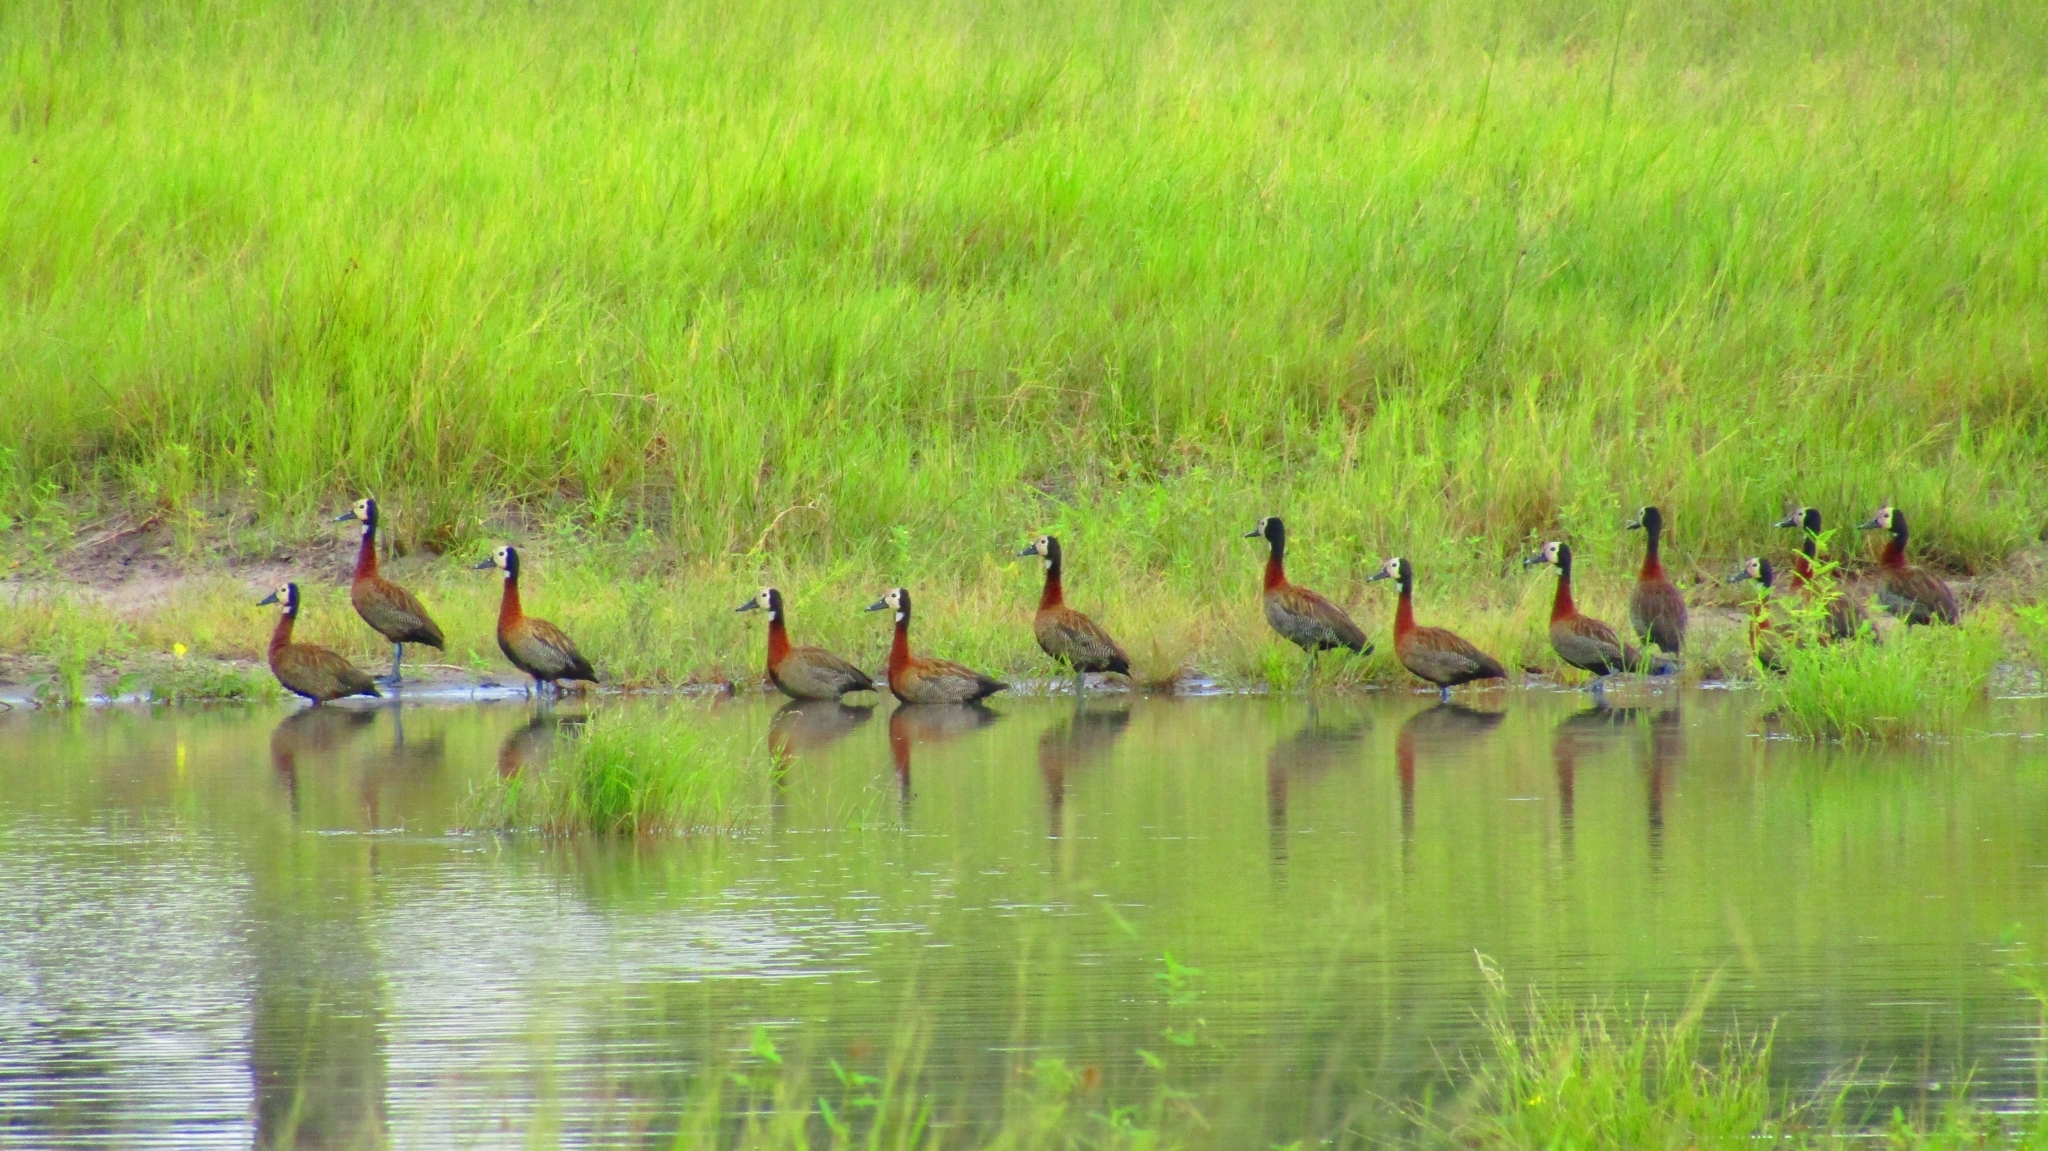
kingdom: Animalia
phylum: Chordata
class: Aves
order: Anseriformes
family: Anatidae
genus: Dendrocygna
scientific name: Dendrocygna viduata
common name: White-faced whistling duck
